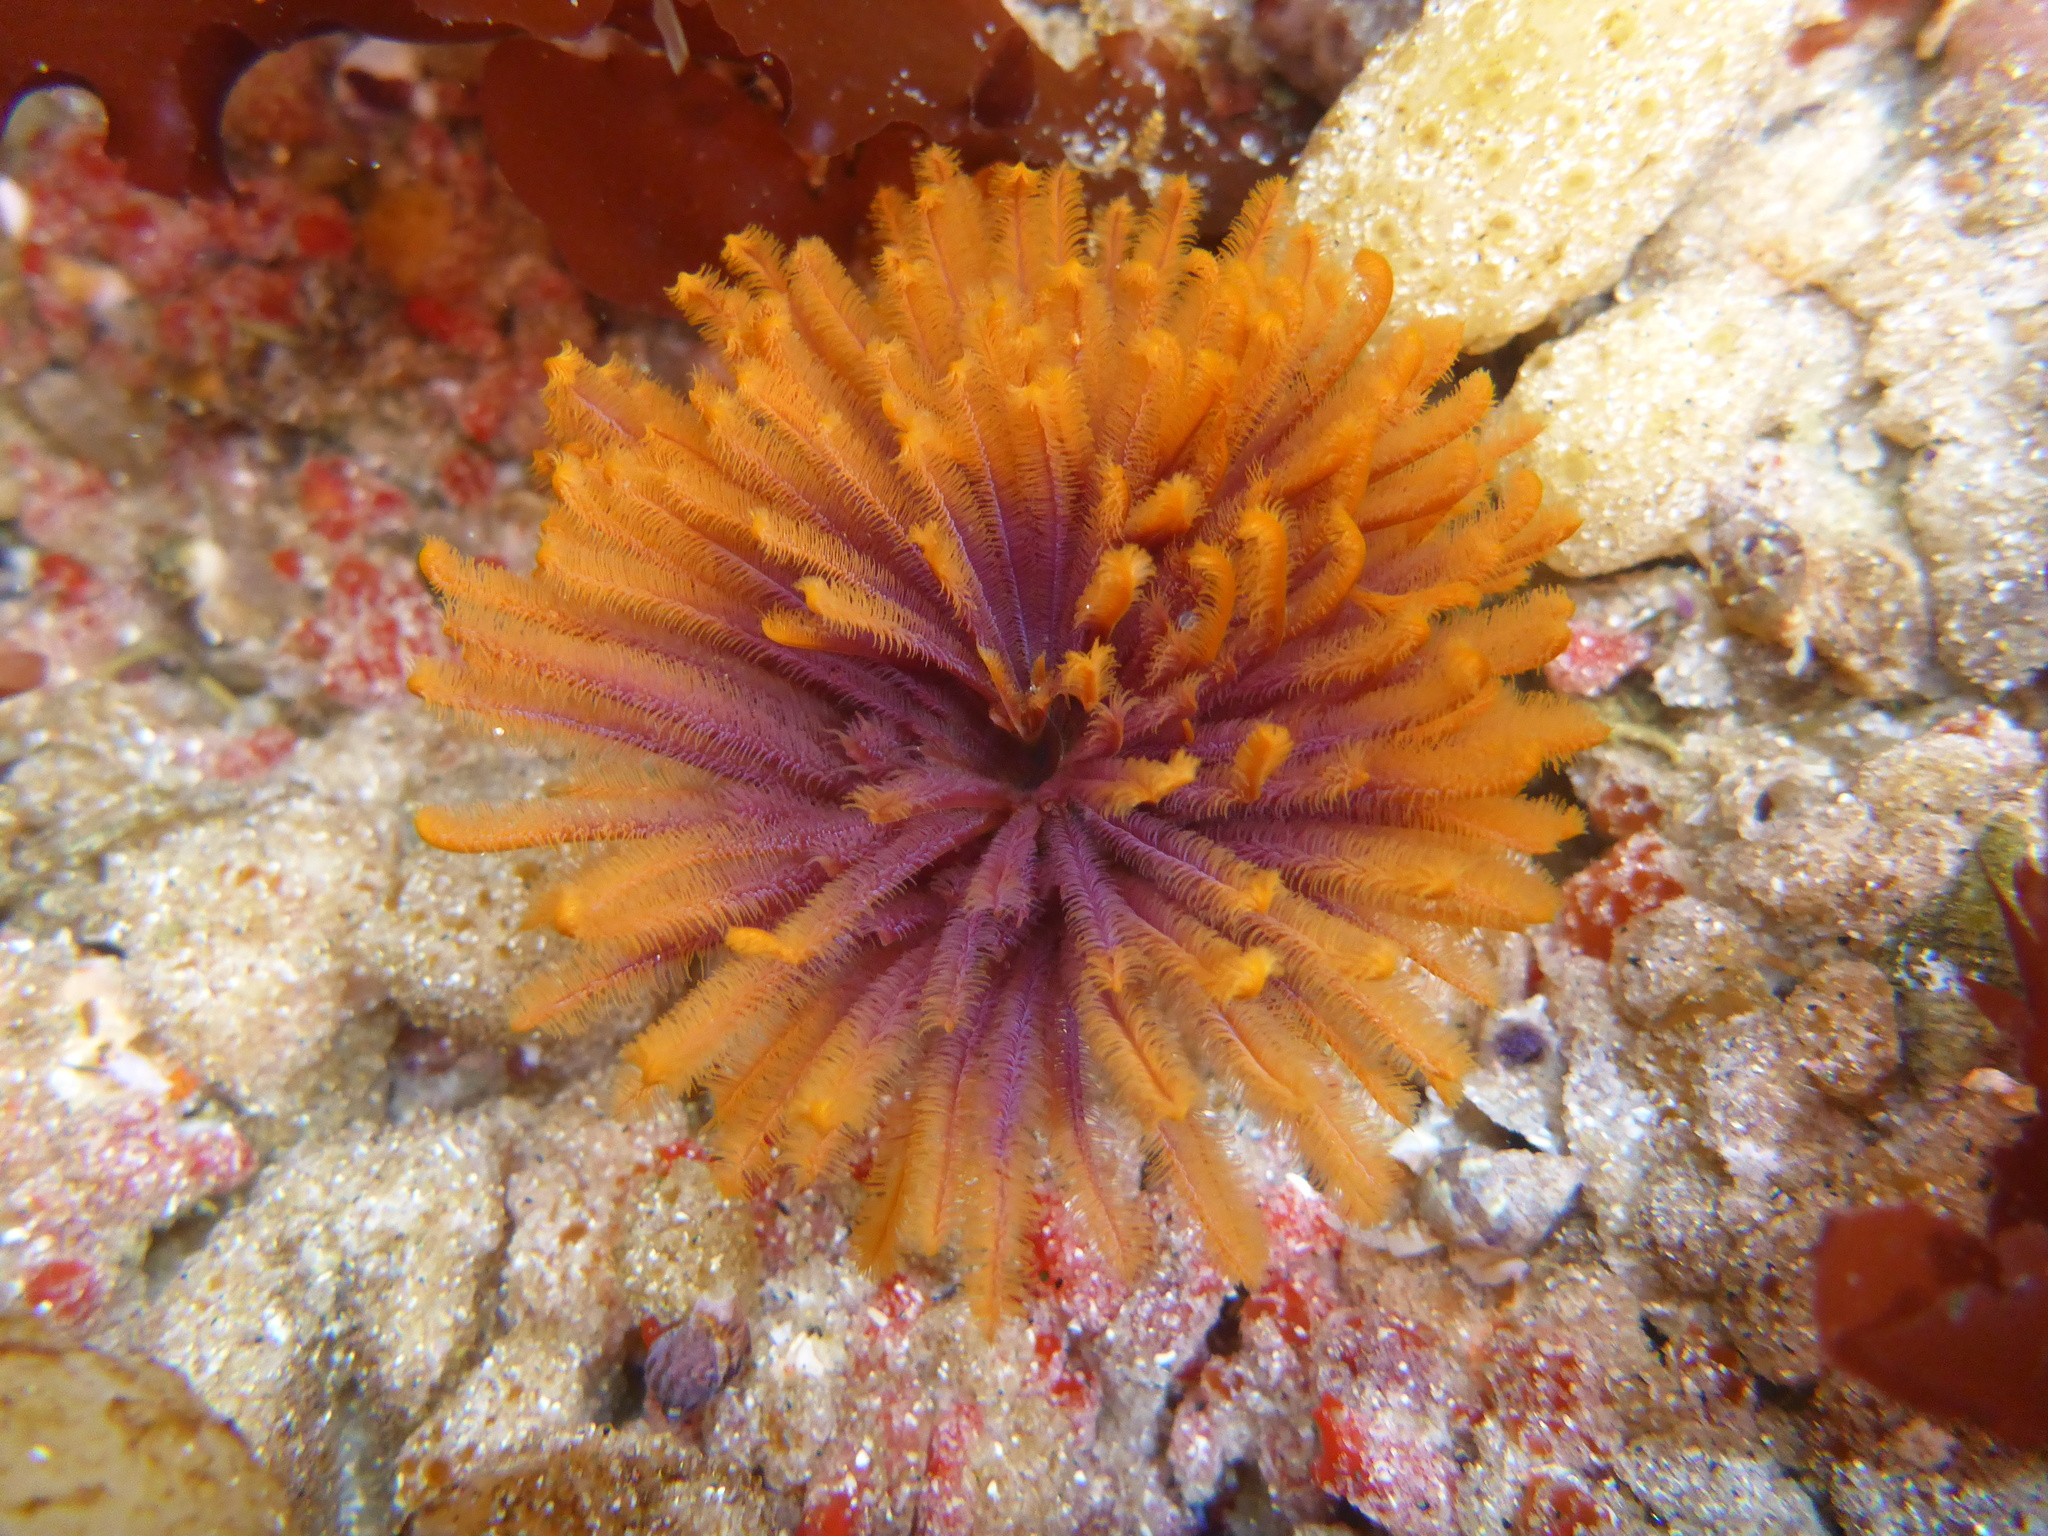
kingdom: Animalia
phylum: Annelida
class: Polychaeta
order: Sabellida
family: Sabellidae
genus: Eudistylia
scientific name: Eudistylia polymorpha
